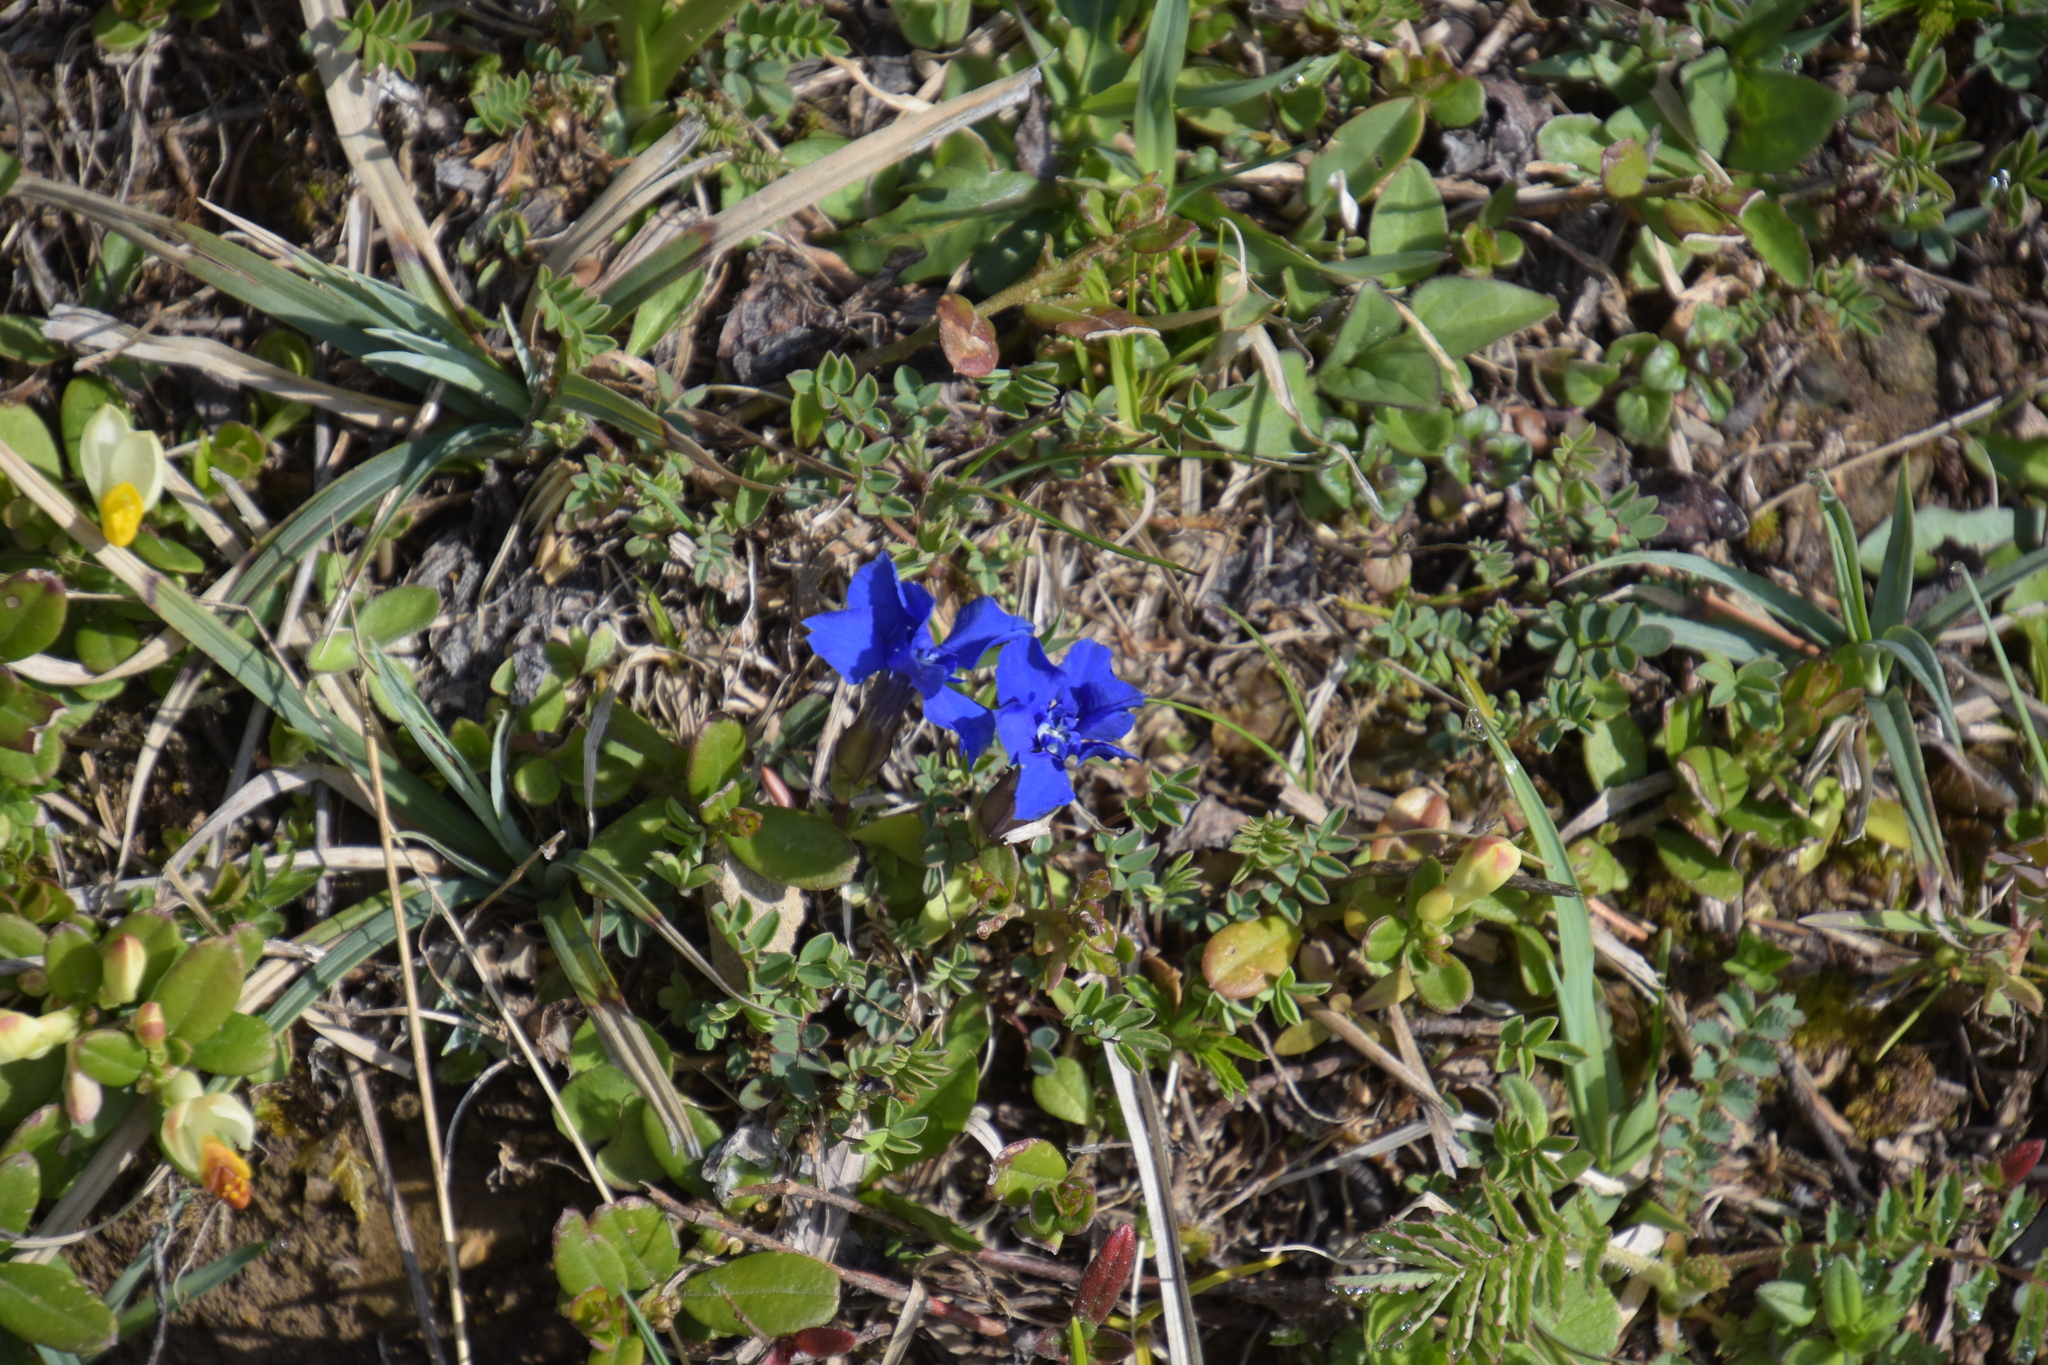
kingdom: Plantae
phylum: Tracheophyta
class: Magnoliopsida
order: Gentianales
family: Gentianaceae
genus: Gentiana
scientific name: Gentiana verna
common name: Spring gentian
